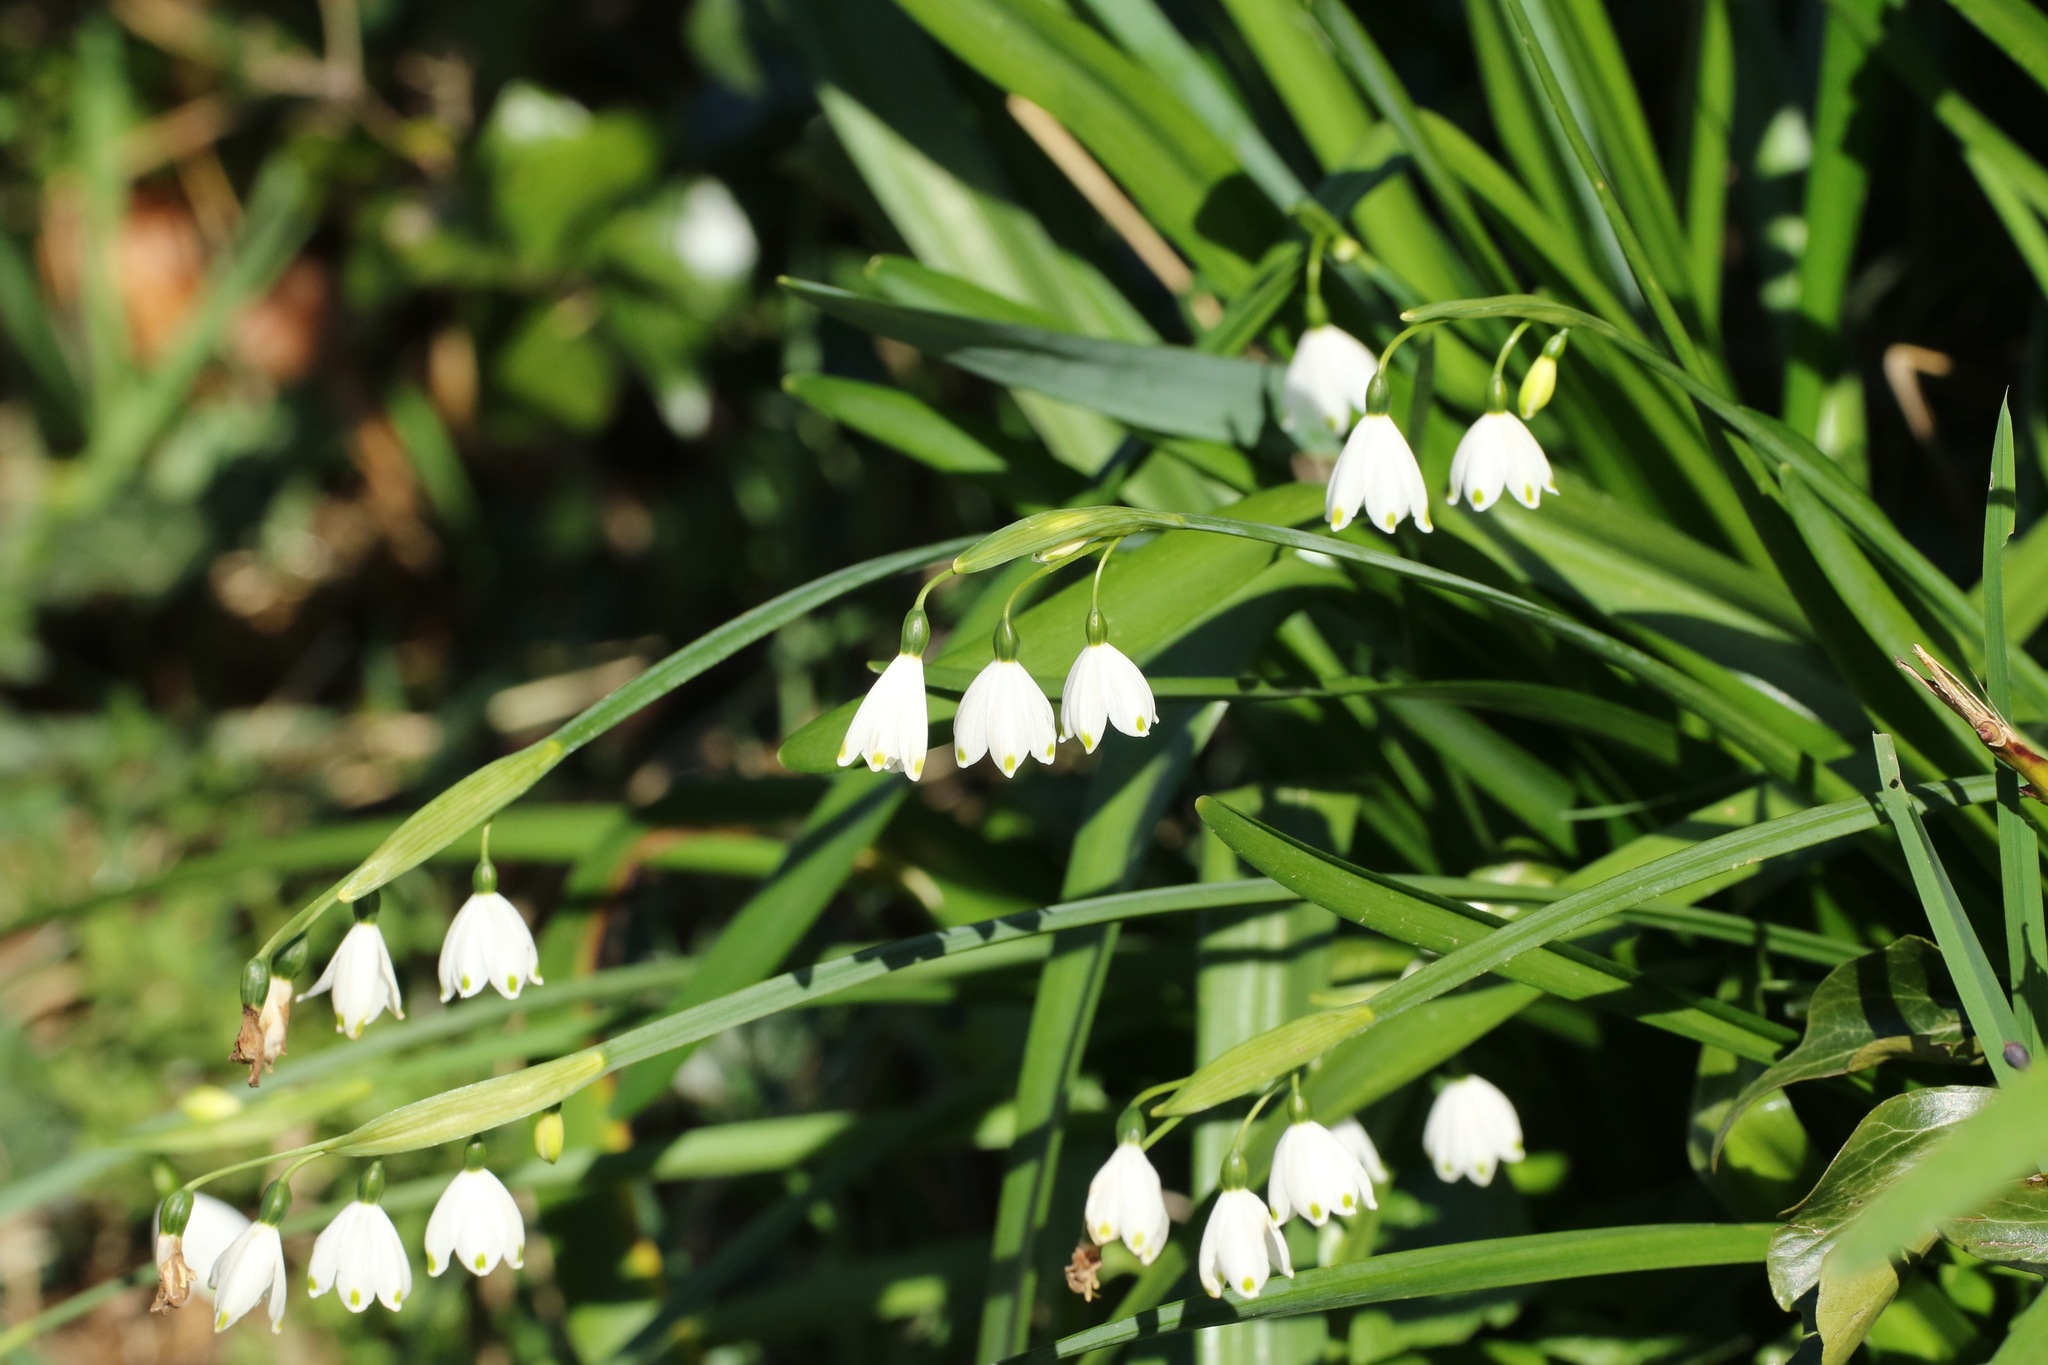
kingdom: Plantae
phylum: Tracheophyta
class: Liliopsida
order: Asparagales
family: Amaryllidaceae
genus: Leucojum
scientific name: Leucojum aestivum
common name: Summer snowflake
